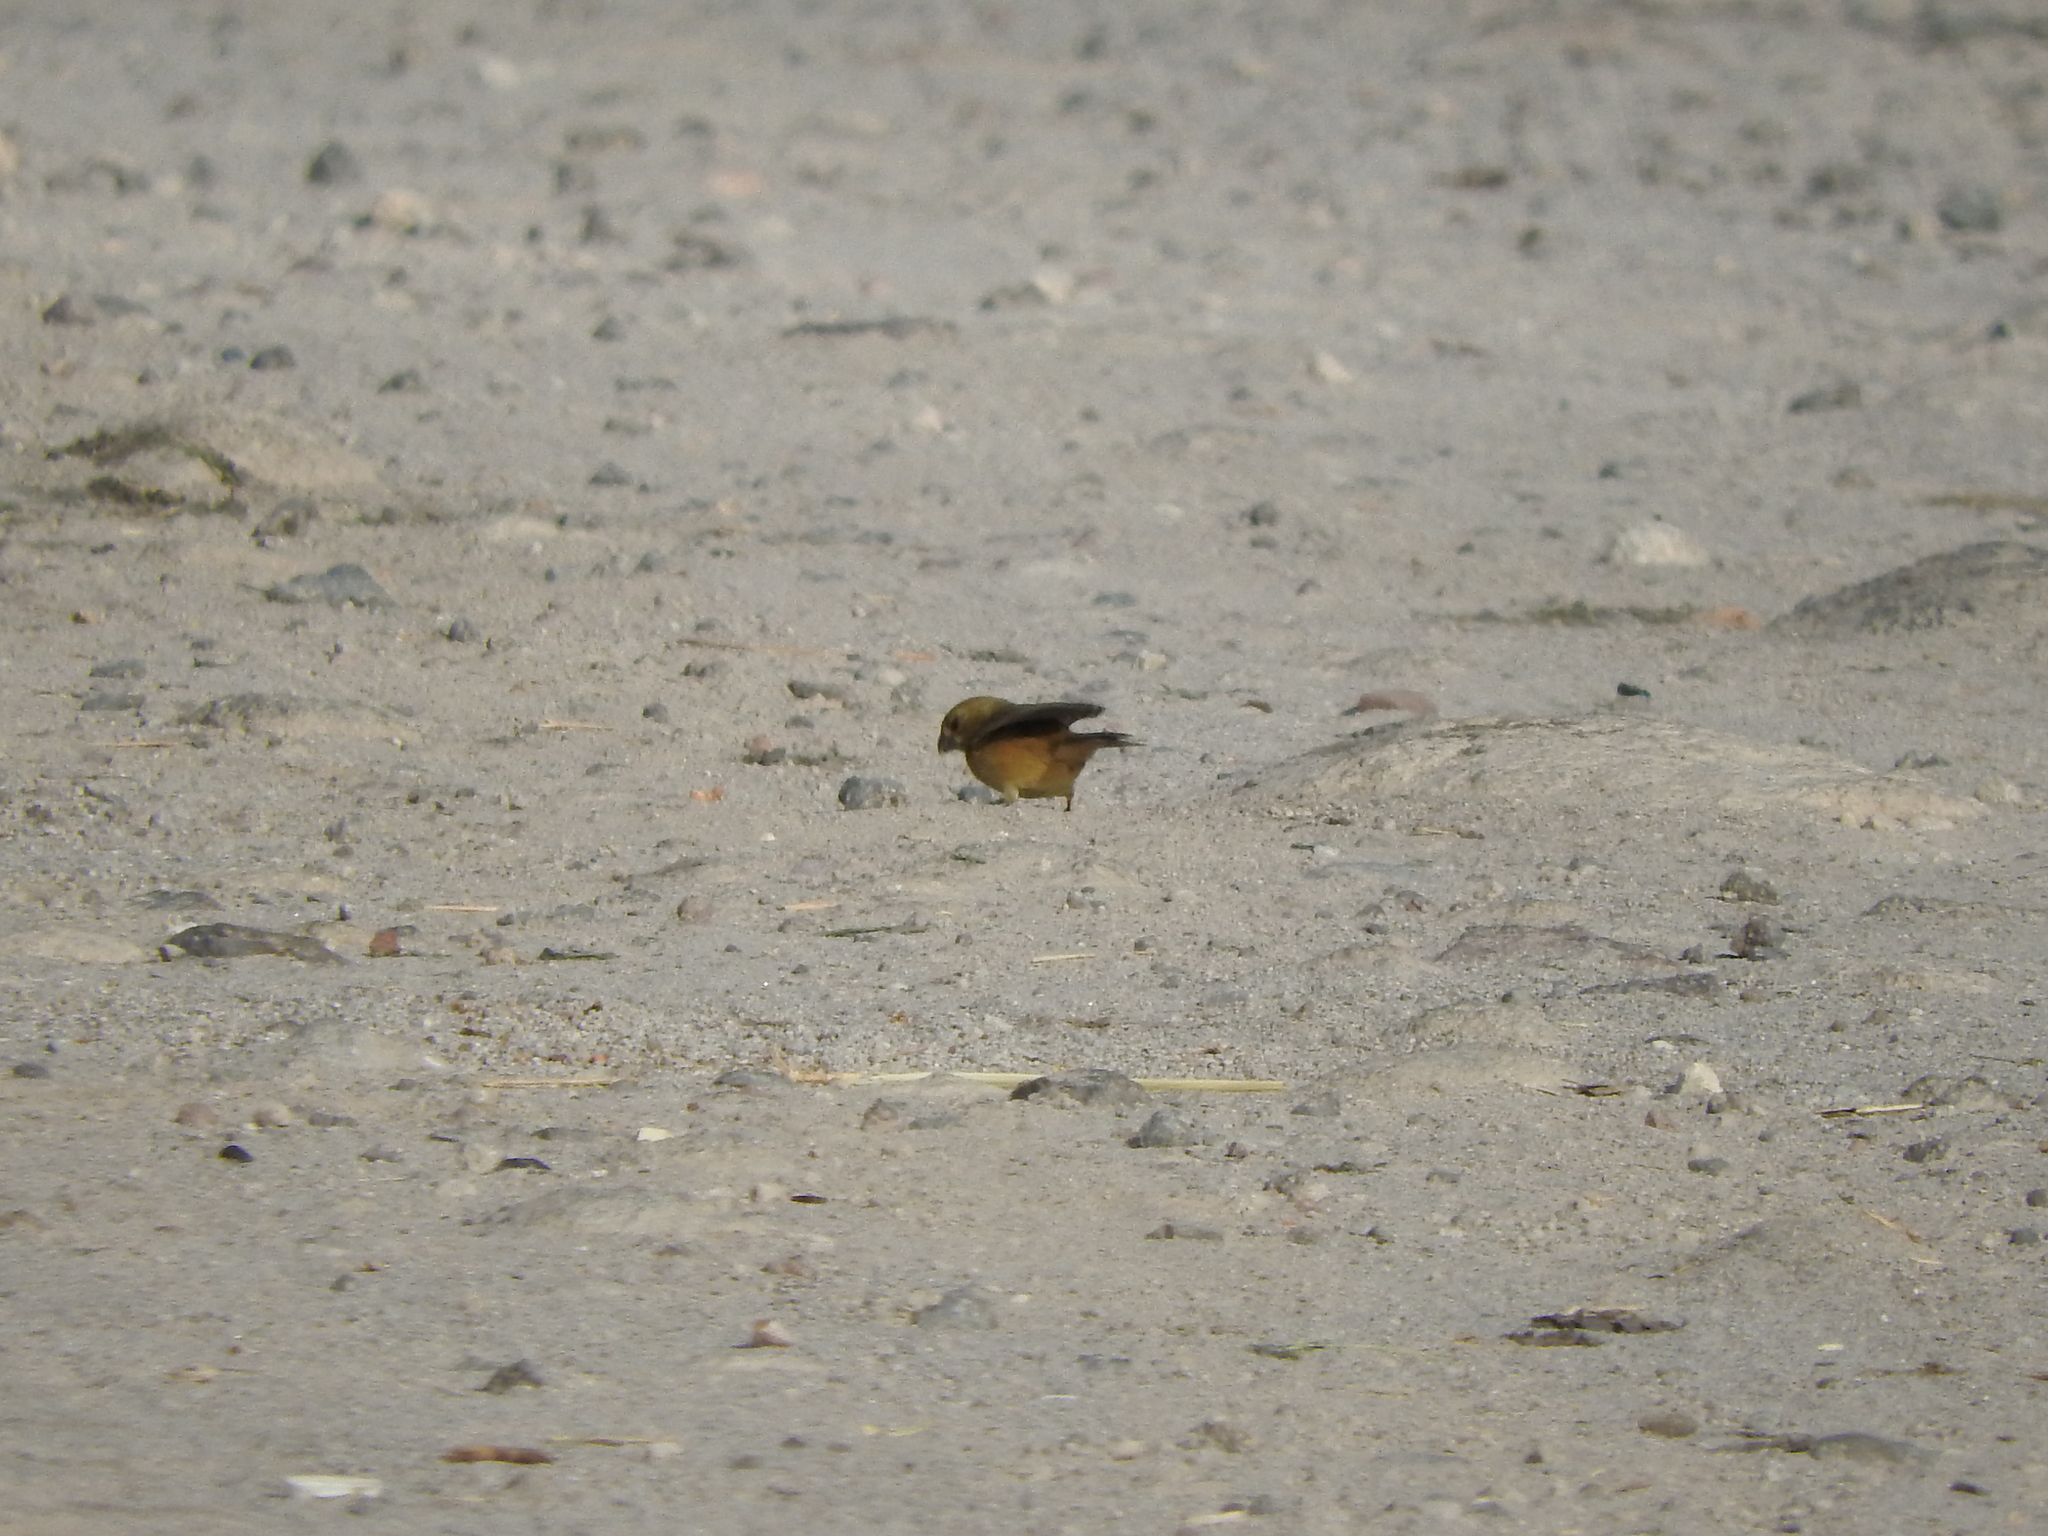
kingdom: Animalia
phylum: Chordata
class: Aves
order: Passeriformes
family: Thraupidae
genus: Sporophila
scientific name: Sporophila torqueola
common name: White-collared seedeater
